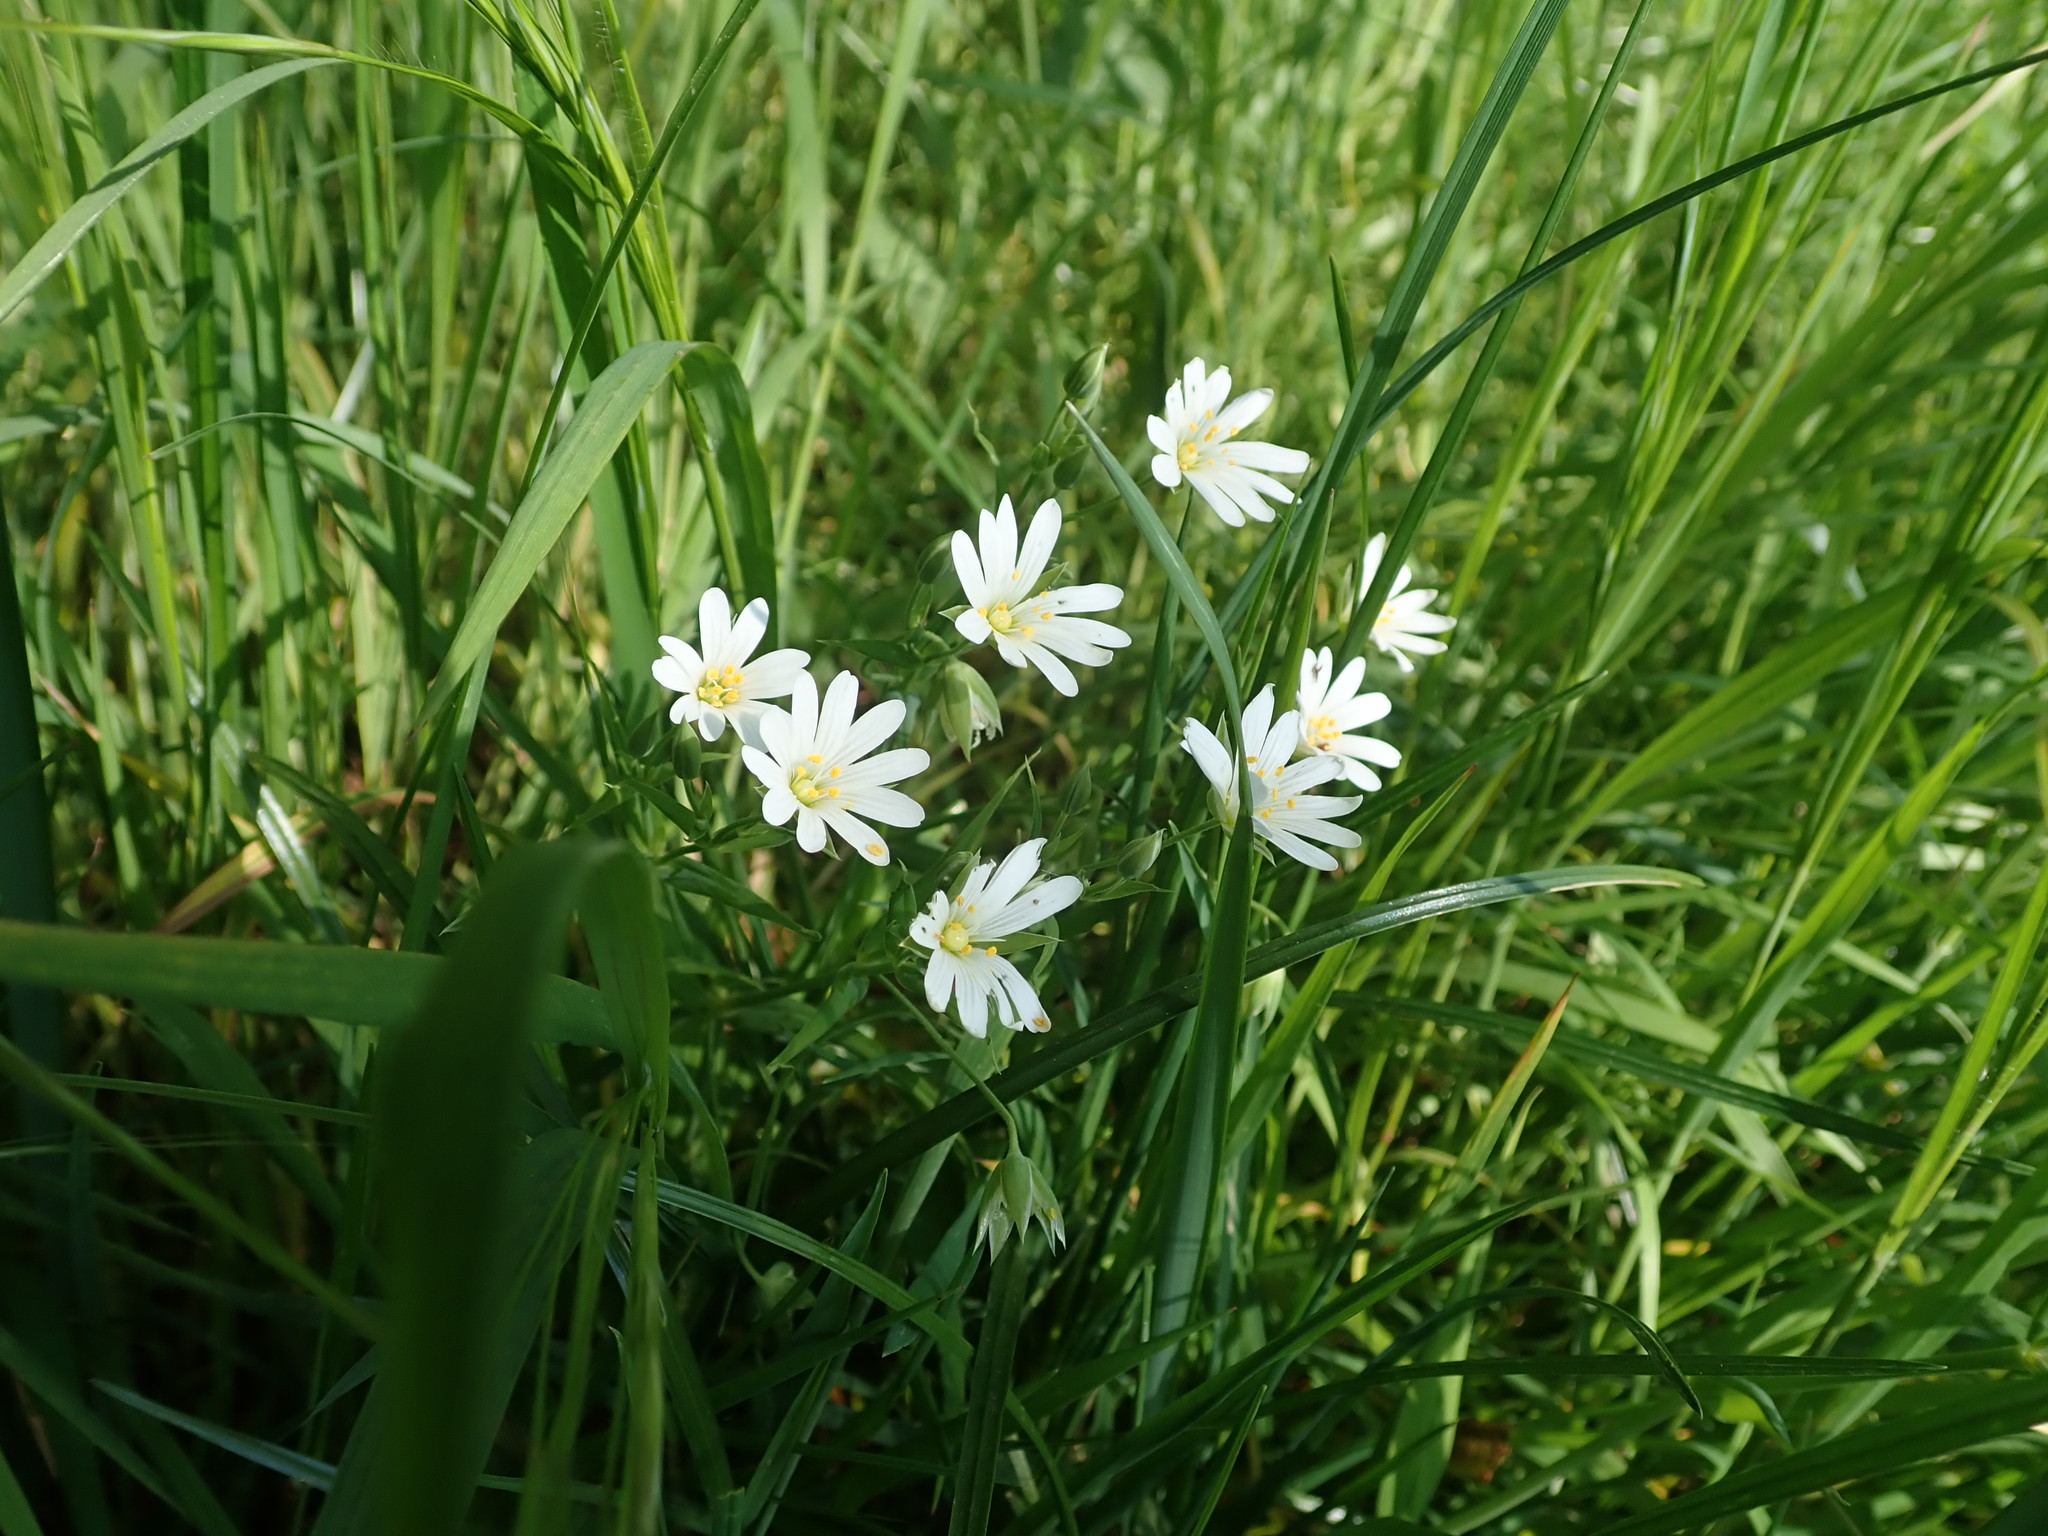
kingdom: Plantae
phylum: Tracheophyta
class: Magnoliopsida
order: Caryophyllales
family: Caryophyllaceae
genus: Rabelera
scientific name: Rabelera holostea
